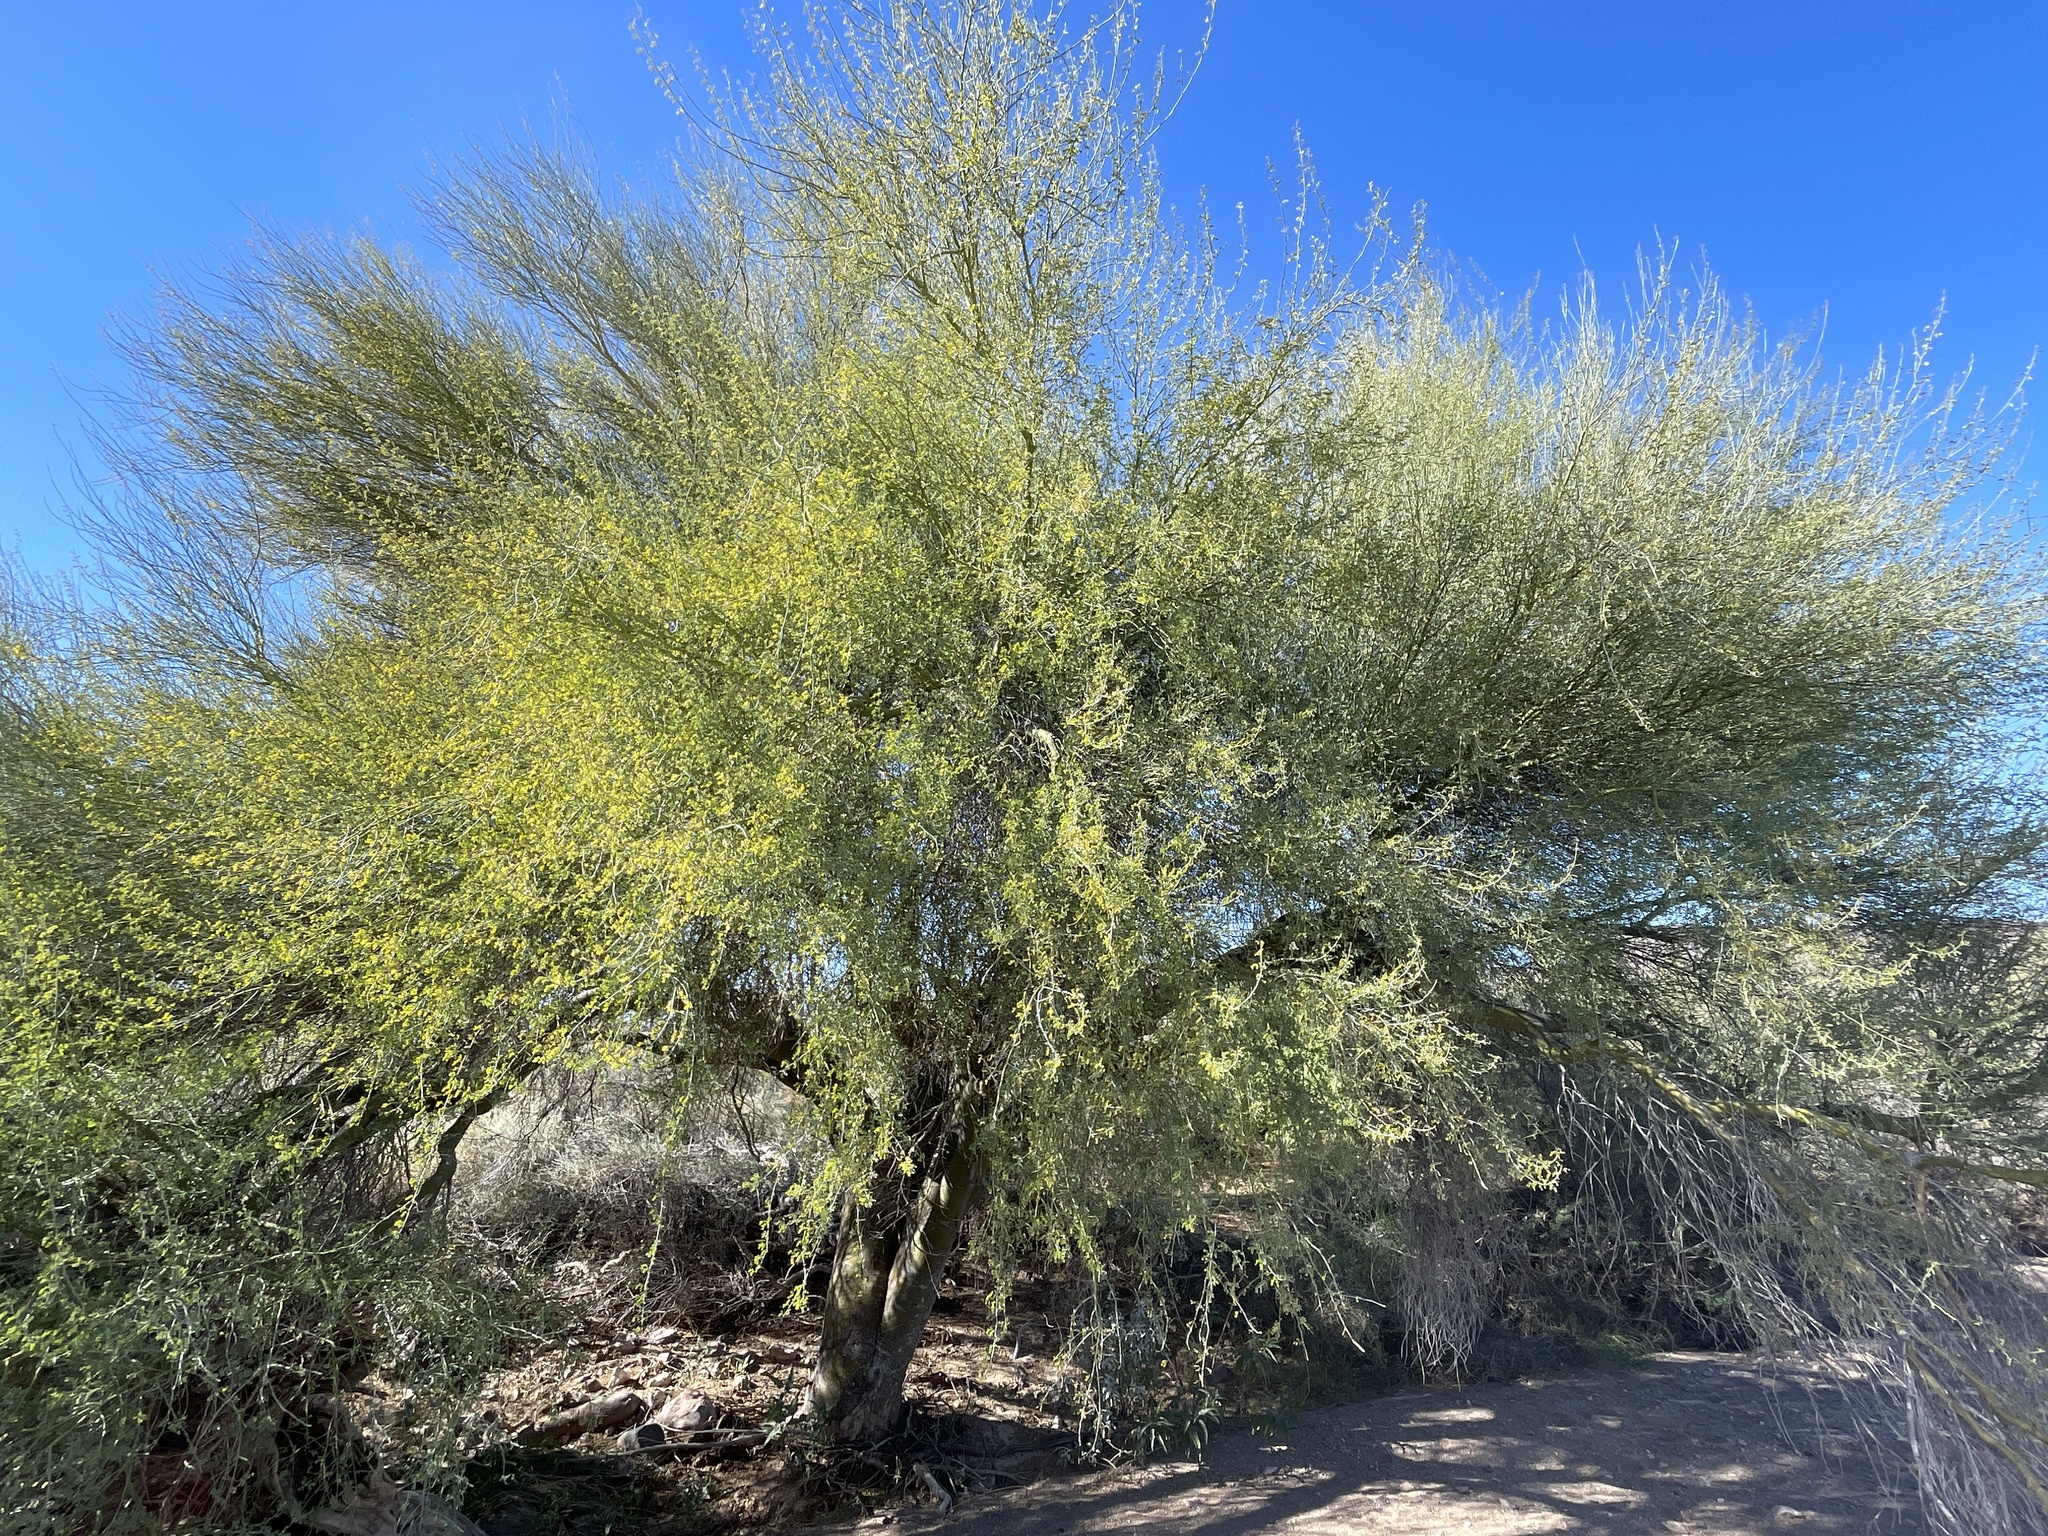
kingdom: Plantae
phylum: Tracheophyta
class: Magnoliopsida
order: Fabales
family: Fabaceae
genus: Parkinsonia
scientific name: Parkinsonia florida
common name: Blue paloverde
